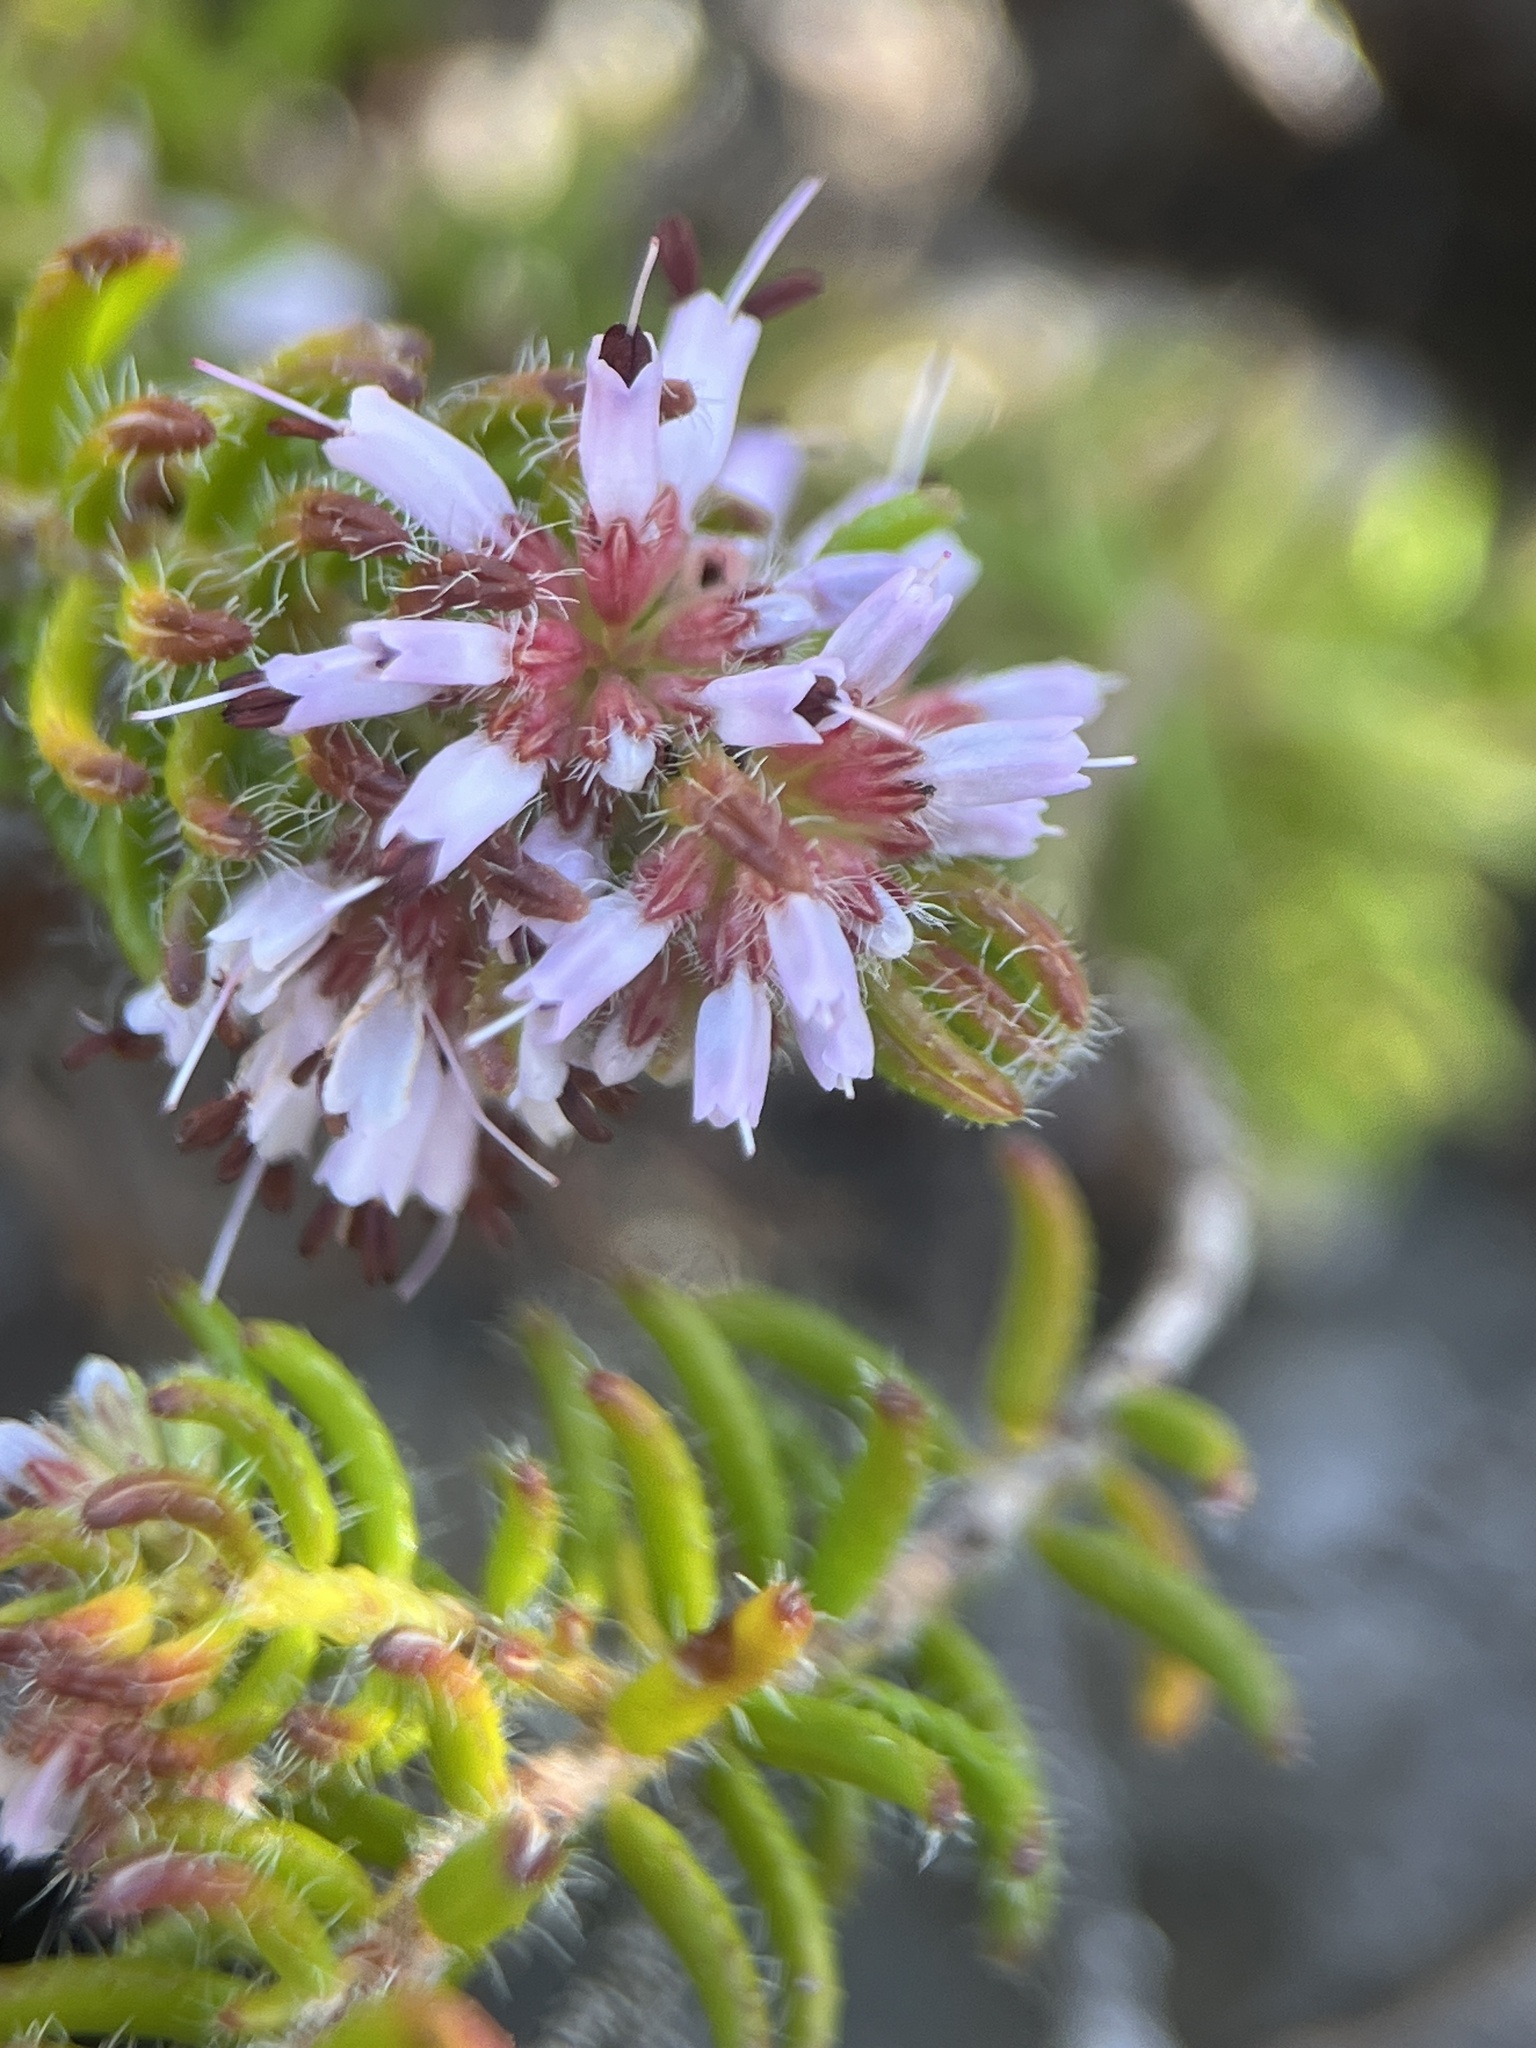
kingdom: Plantae
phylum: Tracheophyta
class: Magnoliopsida
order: Ericales
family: Ericaceae
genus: Erica
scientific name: Erica ericoides
